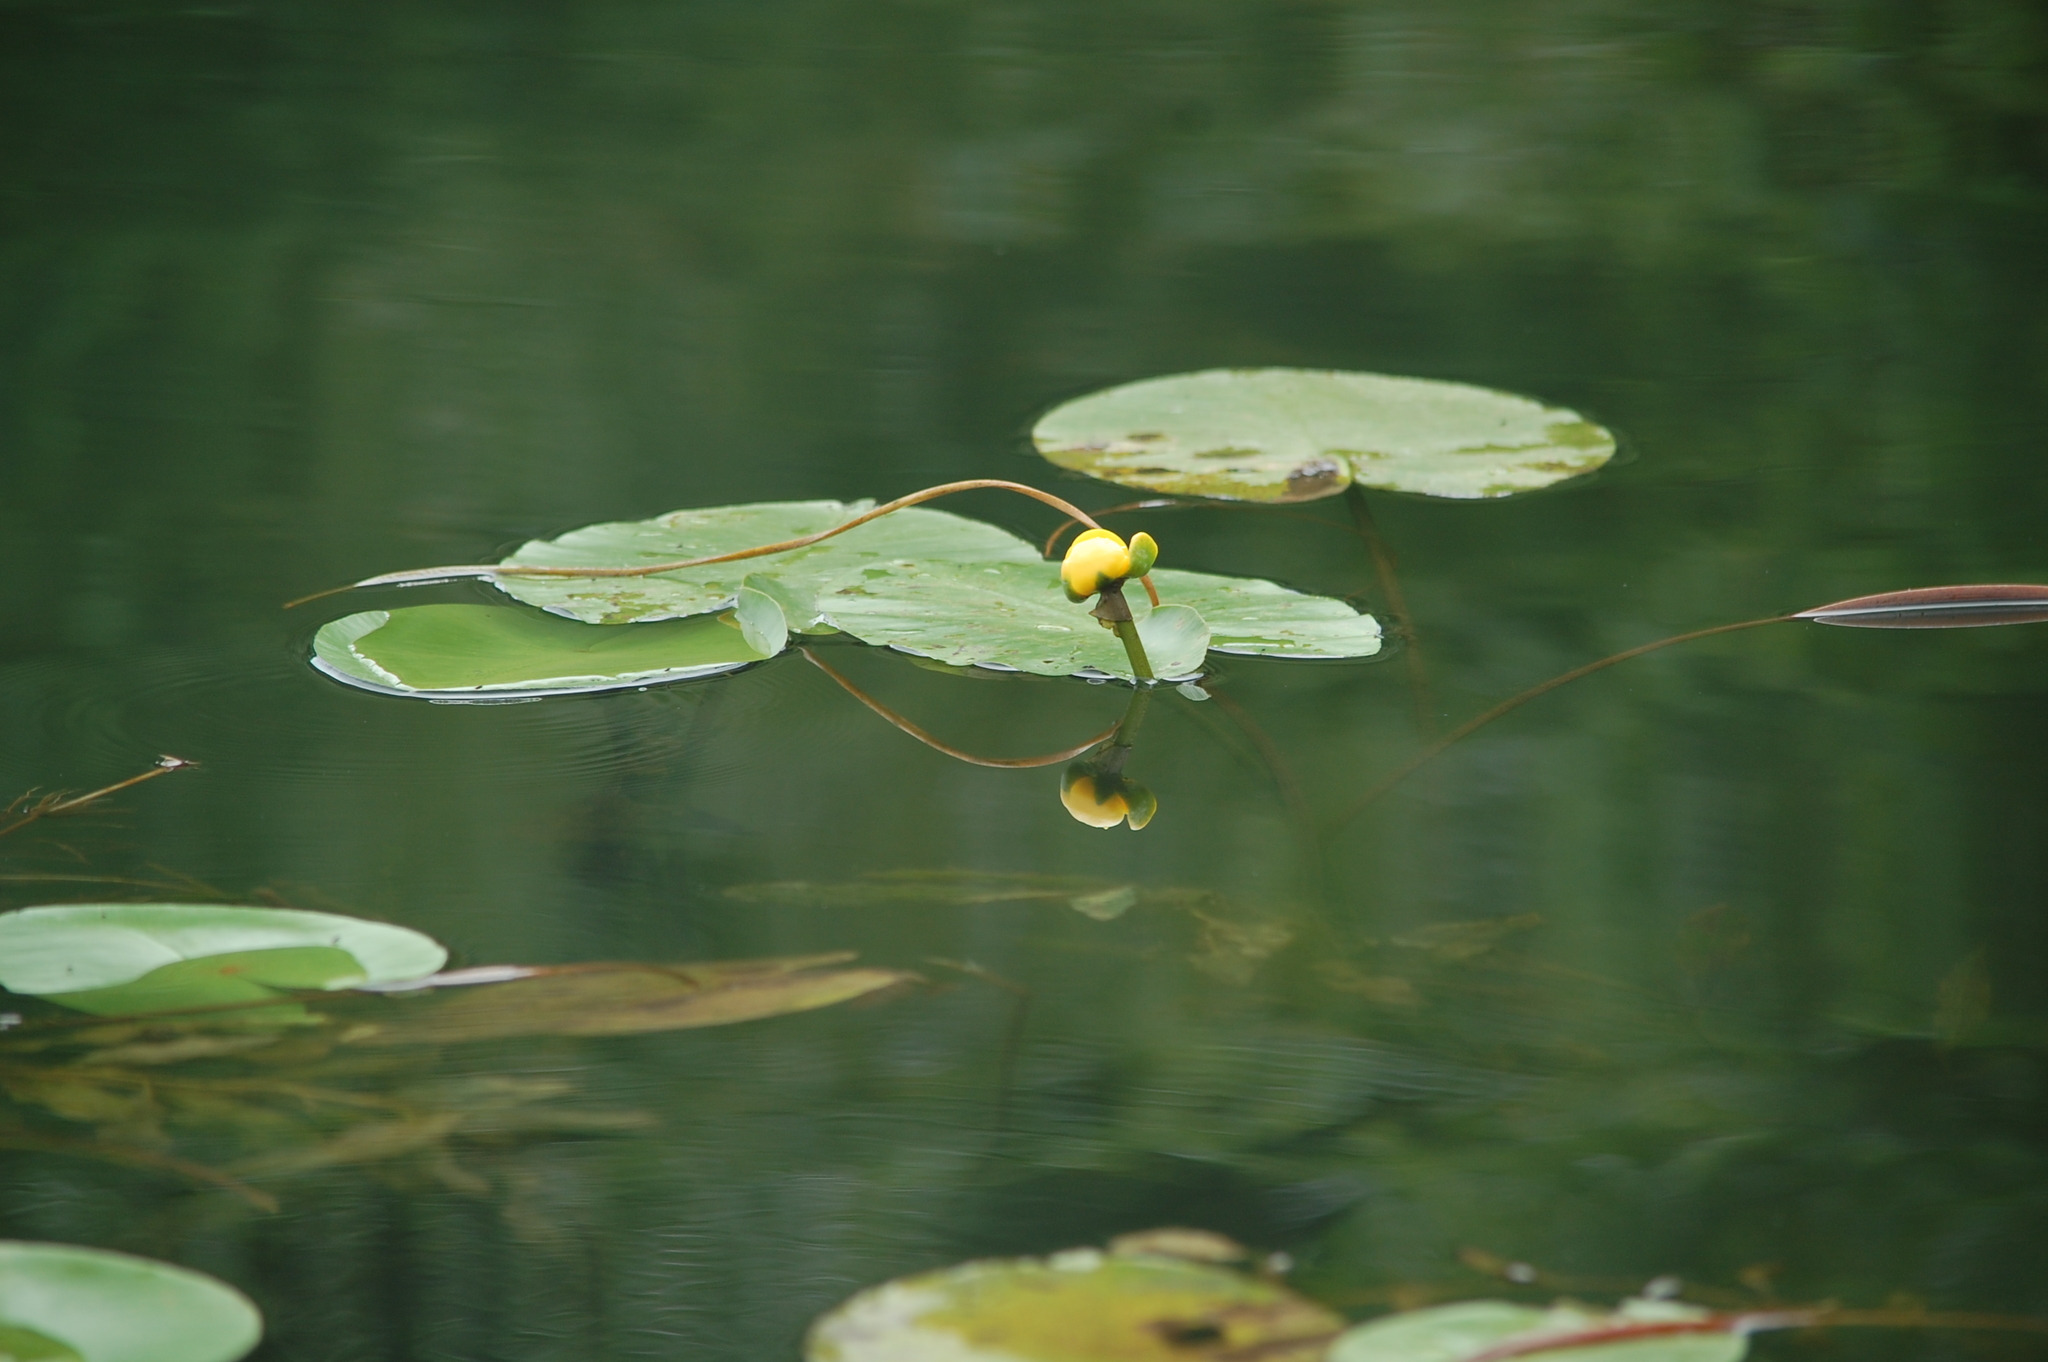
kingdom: Plantae
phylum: Tracheophyta
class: Magnoliopsida
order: Nymphaeales
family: Nymphaeaceae
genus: Nuphar
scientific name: Nuphar lutea
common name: Yellow water-lily
